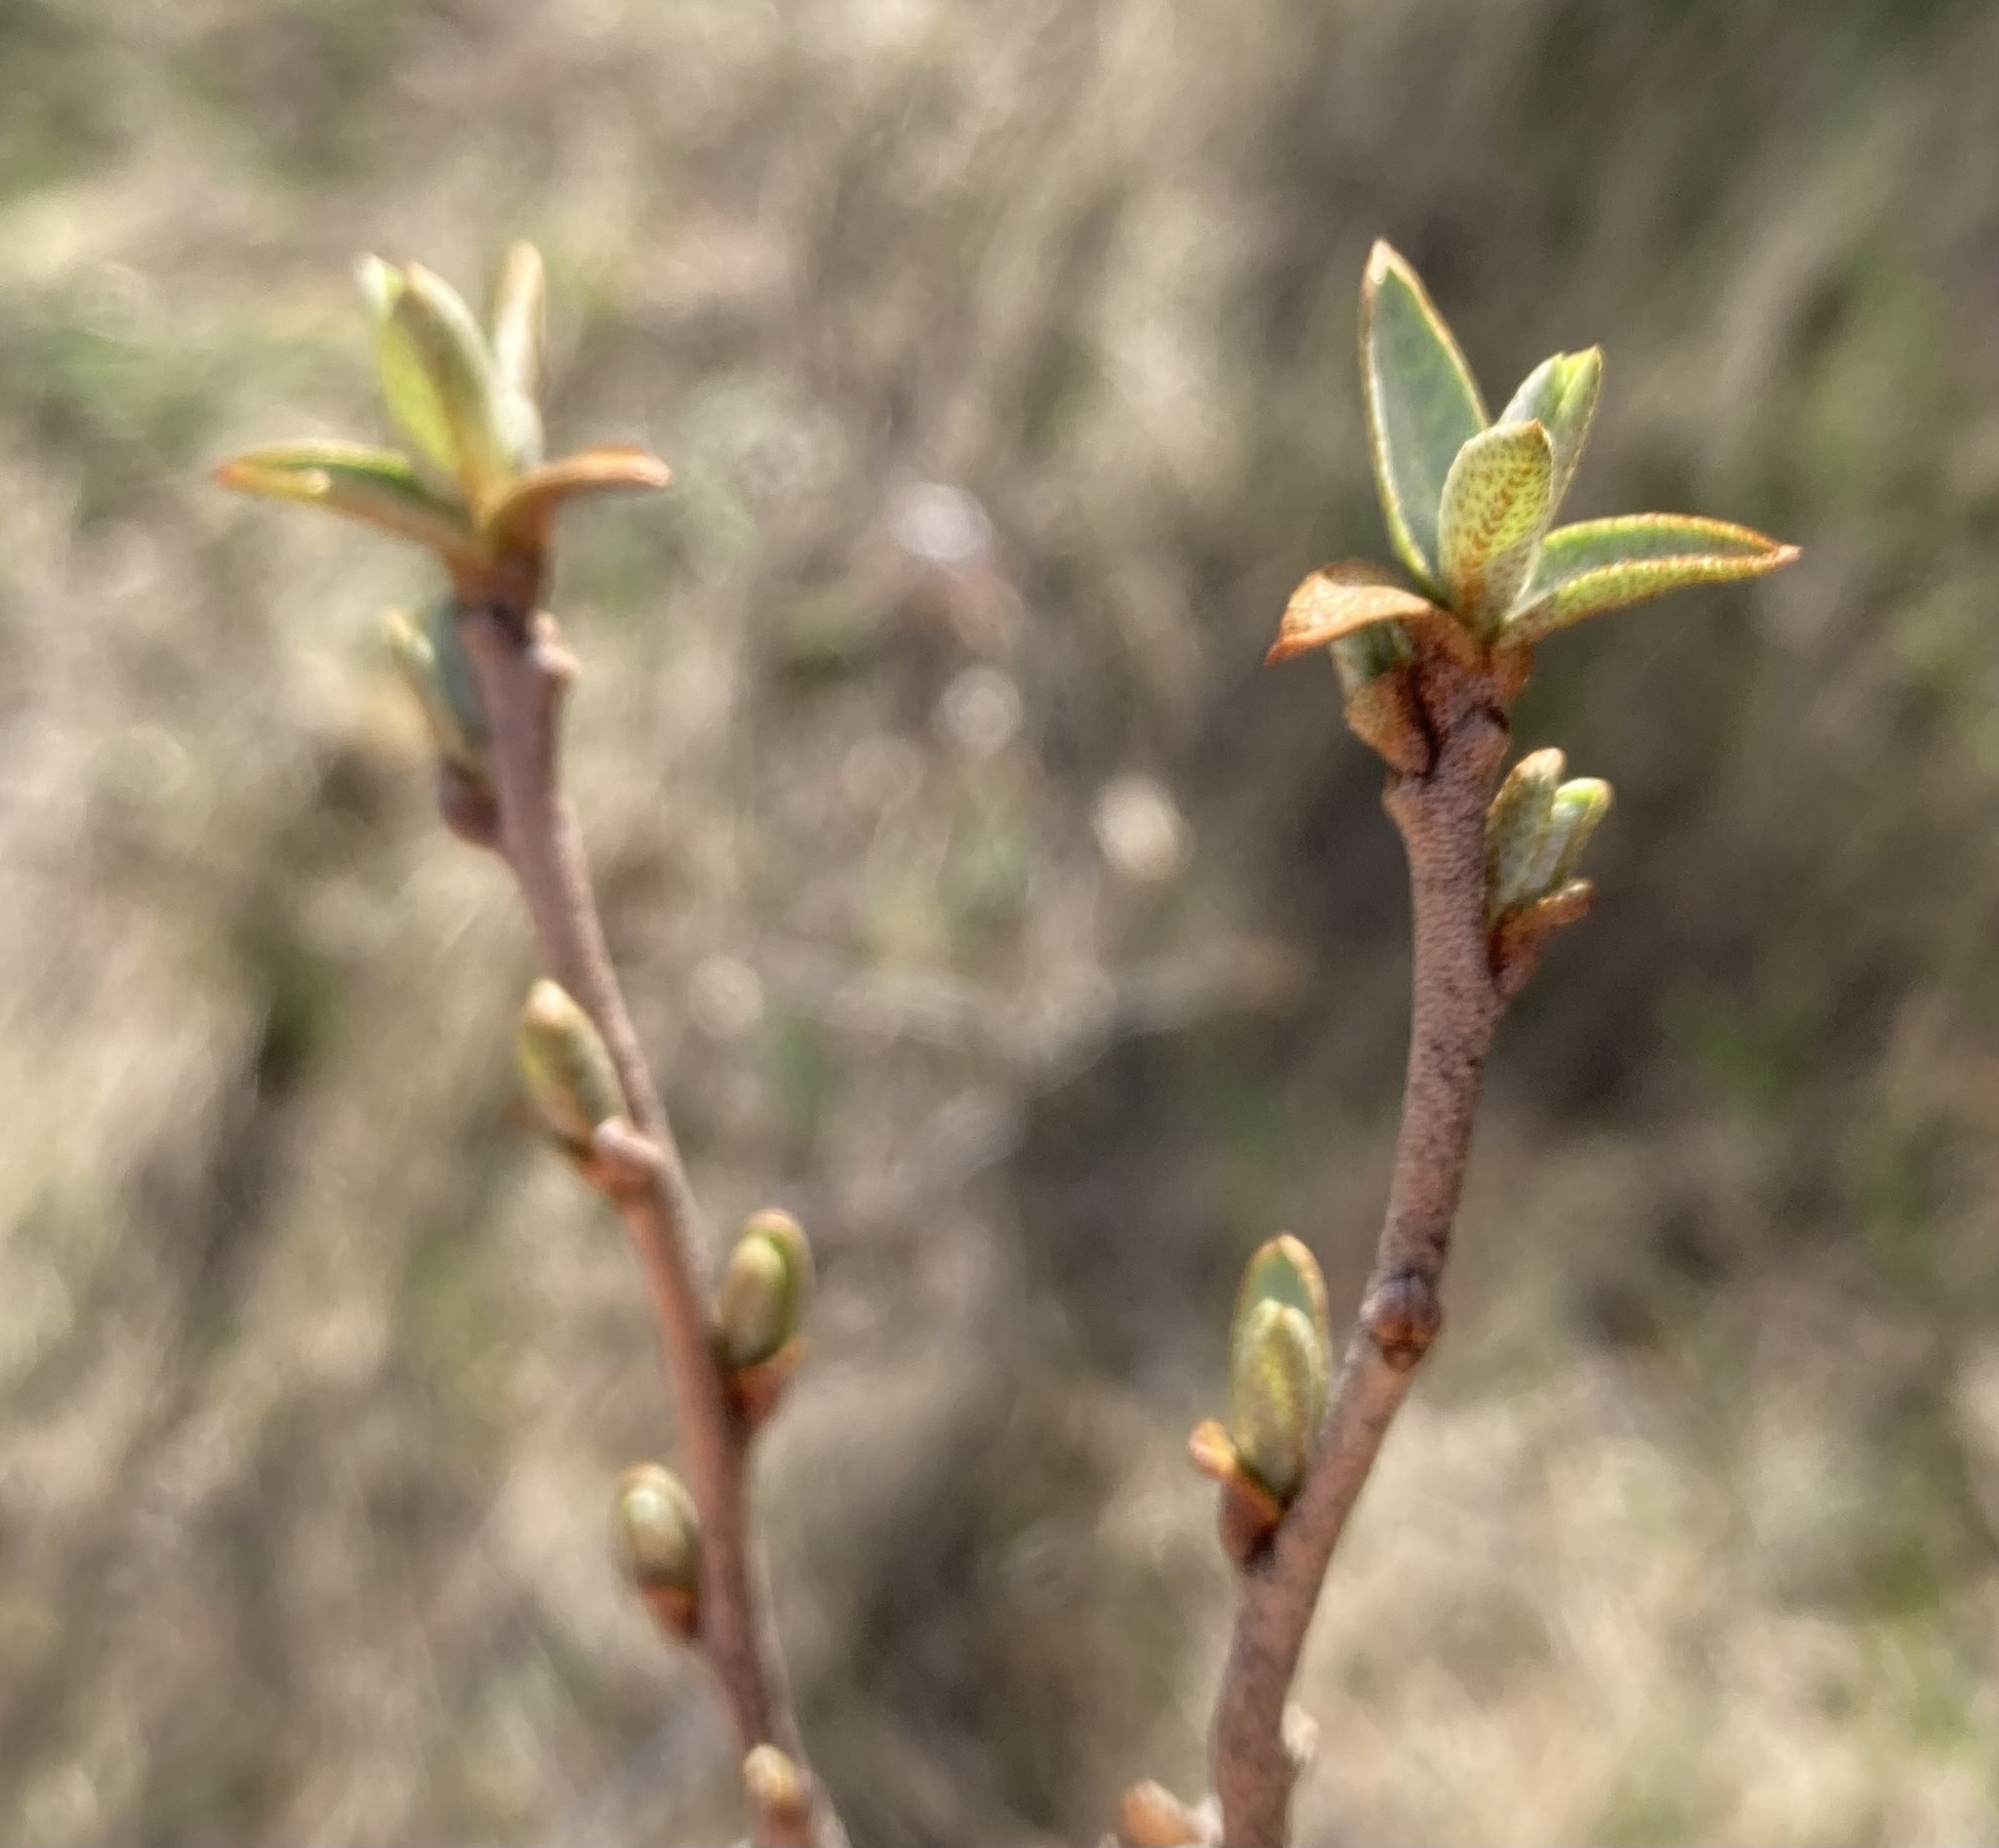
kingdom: Plantae
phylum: Tracheophyta
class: Magnoliopsida
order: Rosales
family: Elaeagnaceae
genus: Elaeagnus
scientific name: Elaeagnus commutata
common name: Silverberry
